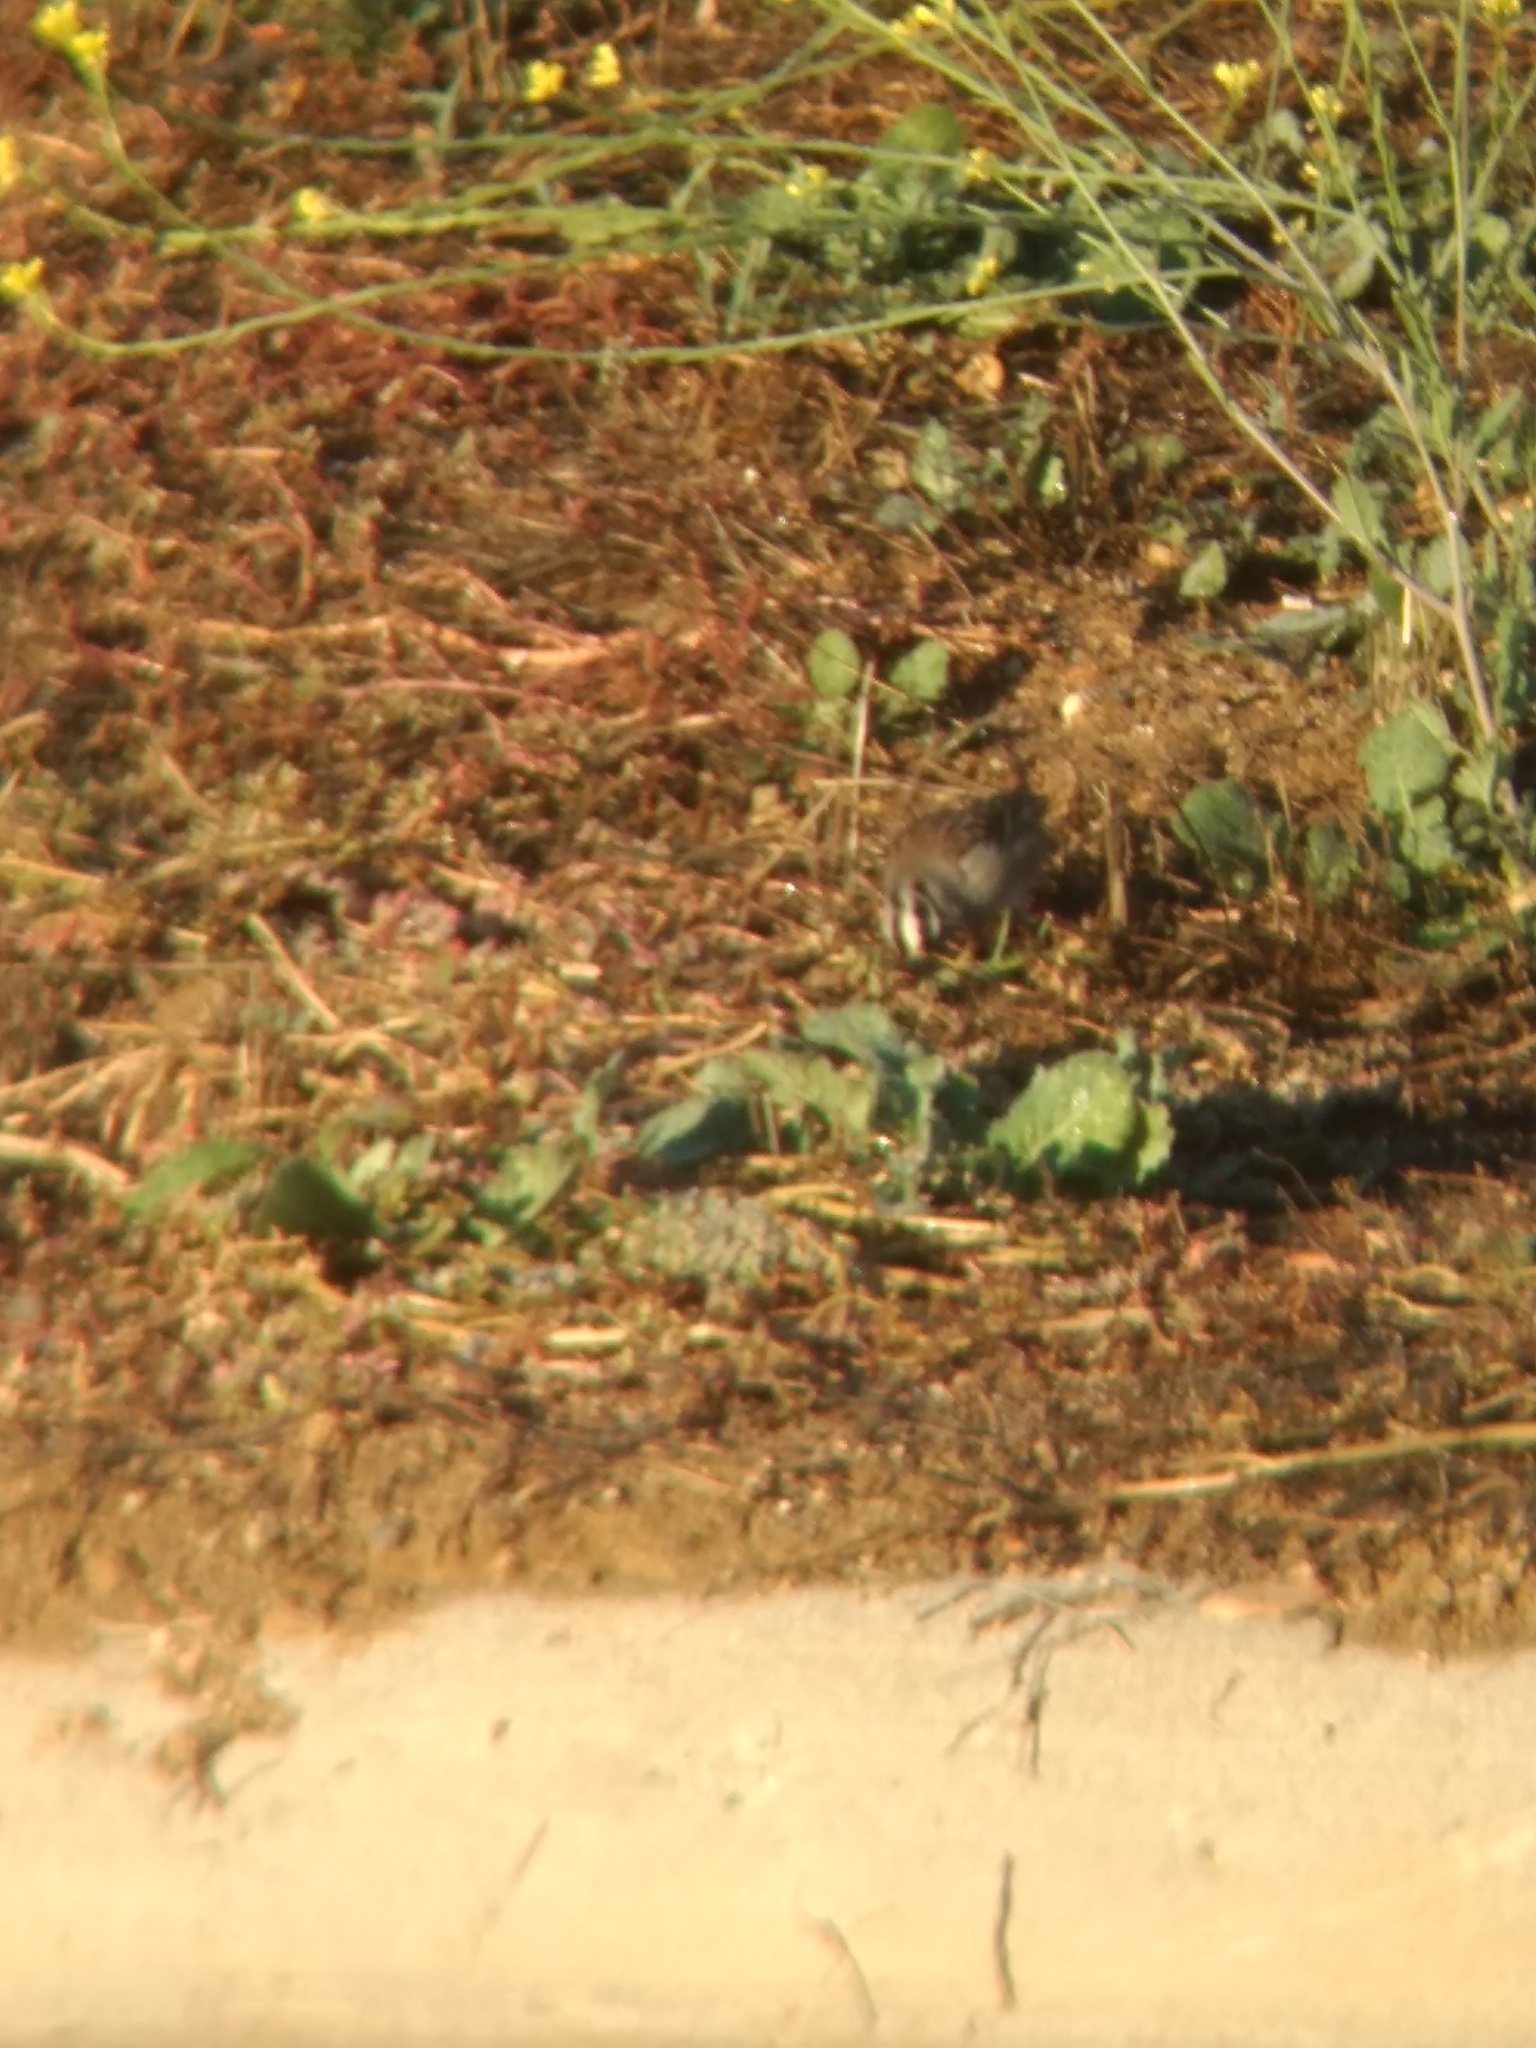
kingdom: Animalia
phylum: Chordata
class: Aves
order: Passeriformes
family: Passerellidae
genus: Zonotrichia
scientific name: Zonotrichia leucophrys
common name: White-crowned sparrow
